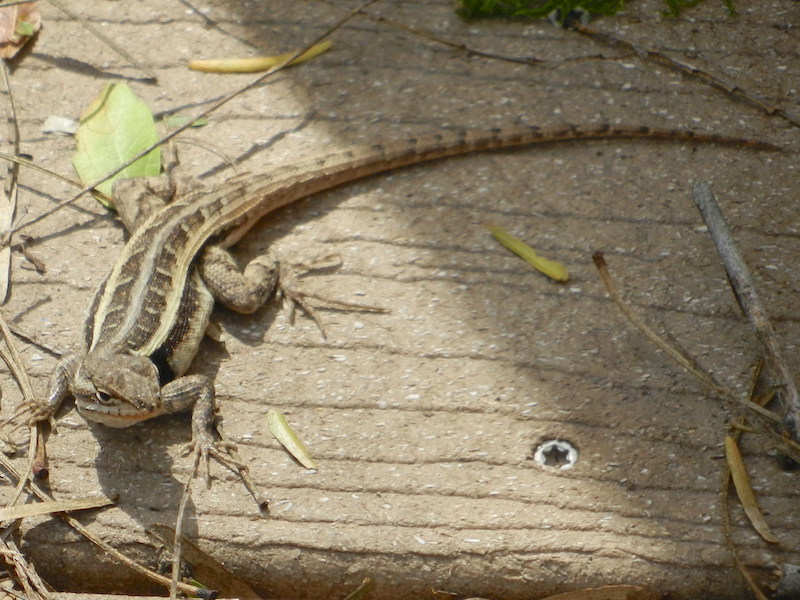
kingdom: Animalia
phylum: Chordata
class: Squamata
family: Phrynosomatidae
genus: Sceloporus
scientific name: Sceloporus variabilis
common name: Rosebelly lizard
